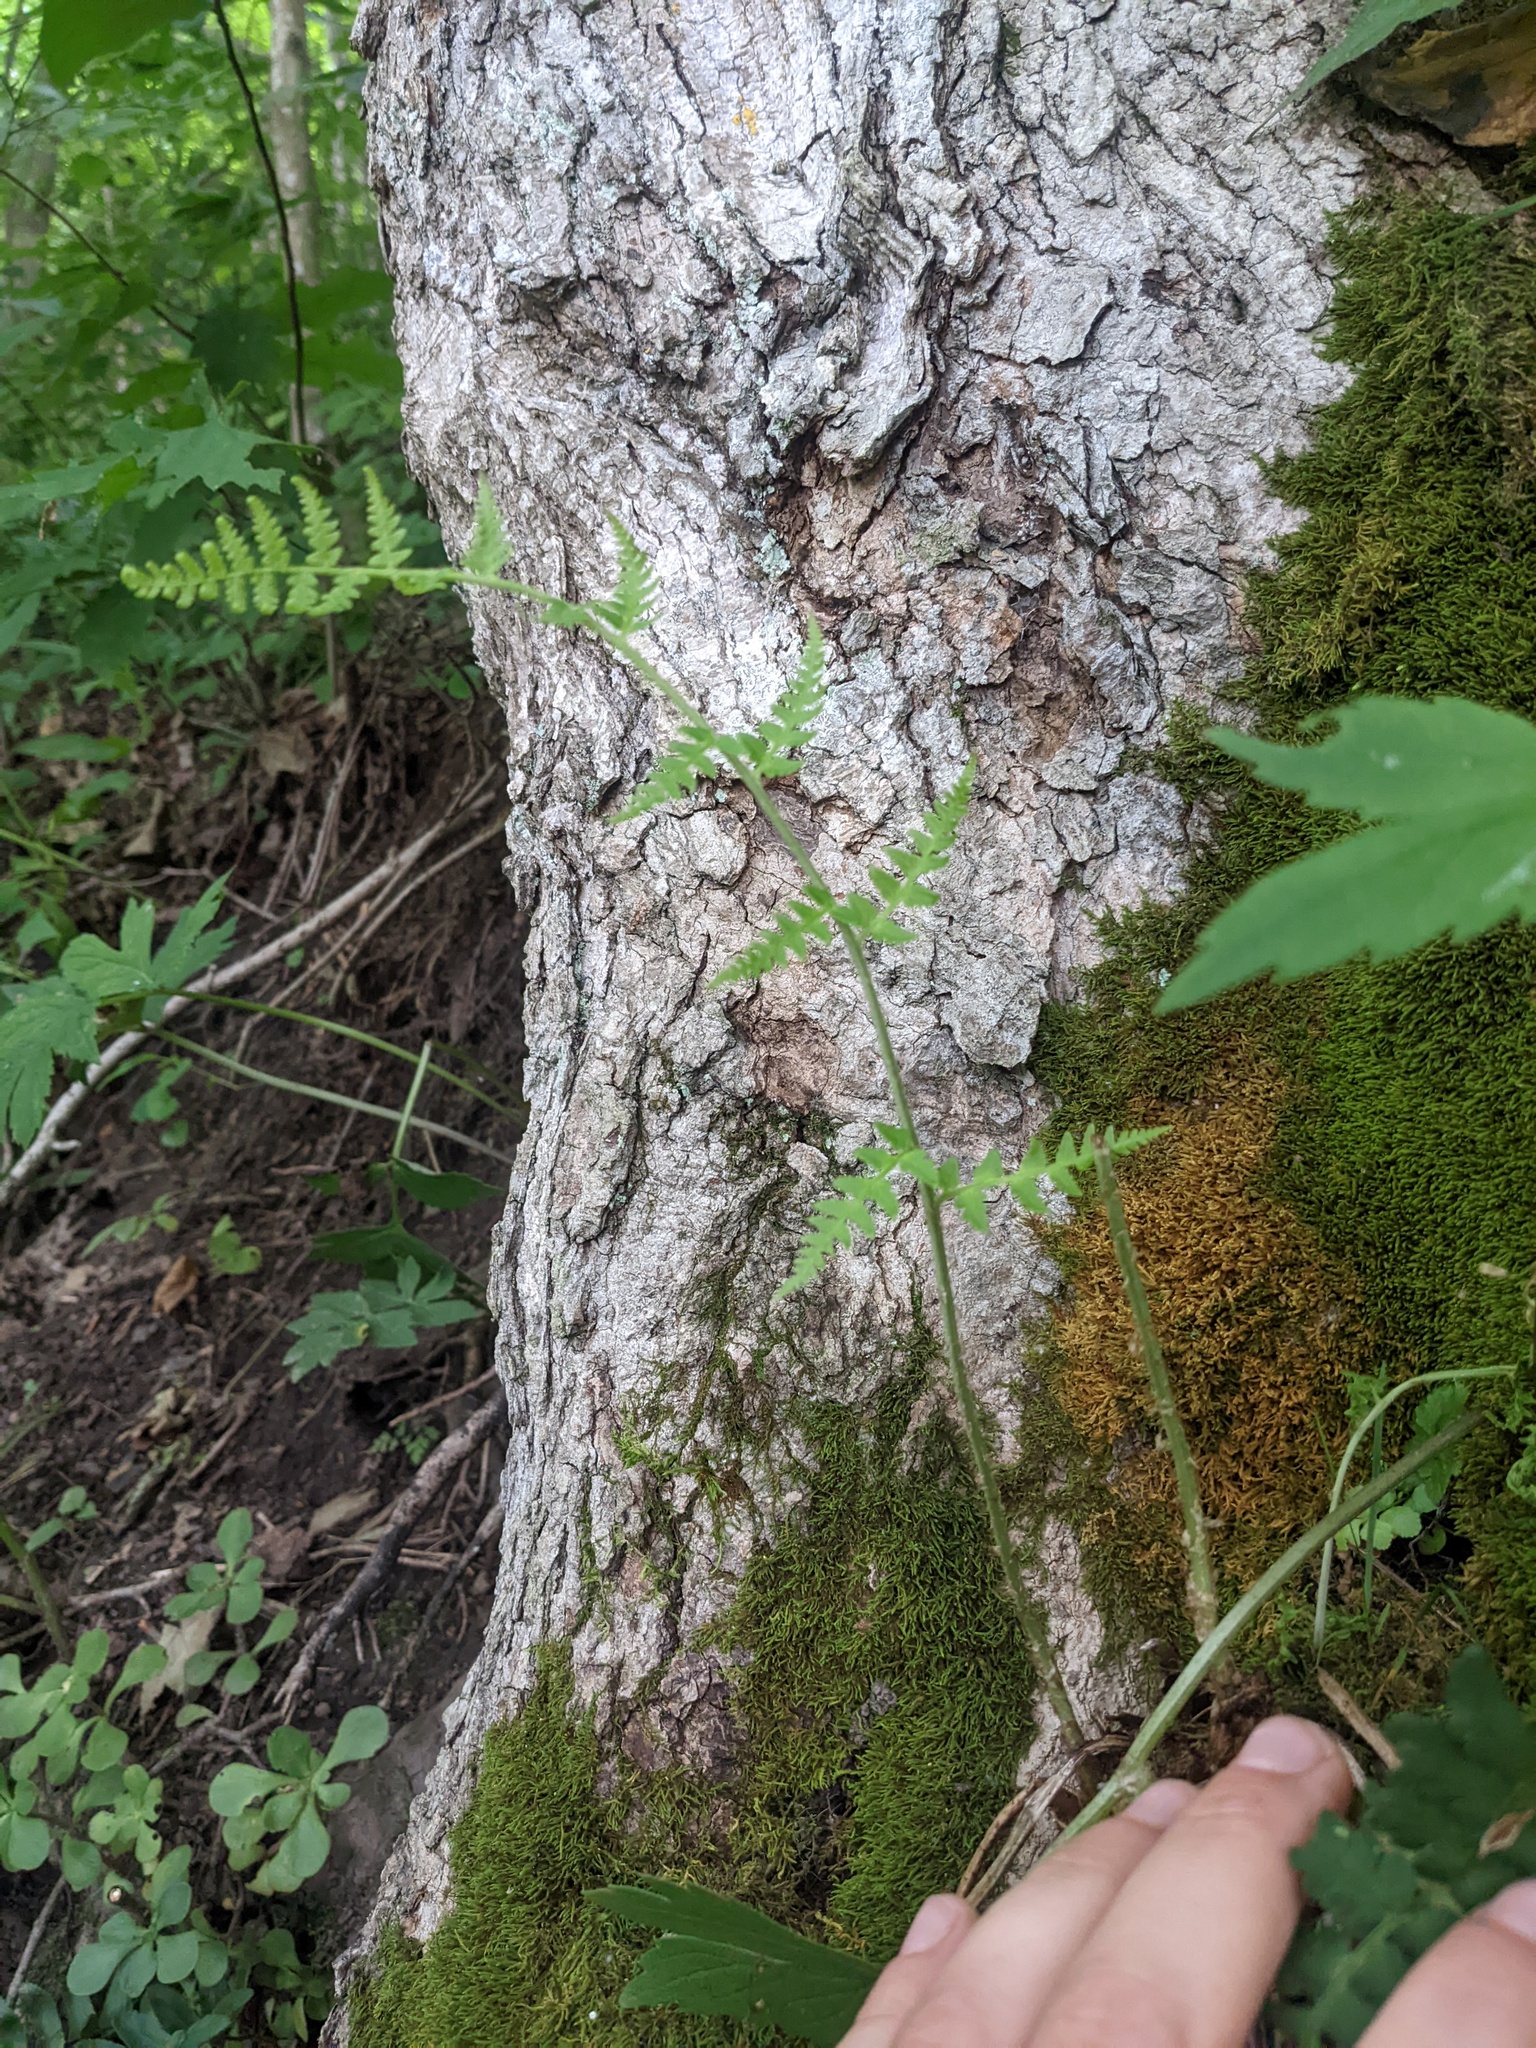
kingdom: Plantae
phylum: Tracheophyta
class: Polypodiopsida
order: Polypodiales
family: Dryopteridaceae
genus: Dryopteris
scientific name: Dryopteris marginalis
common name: Marginal wood fern
